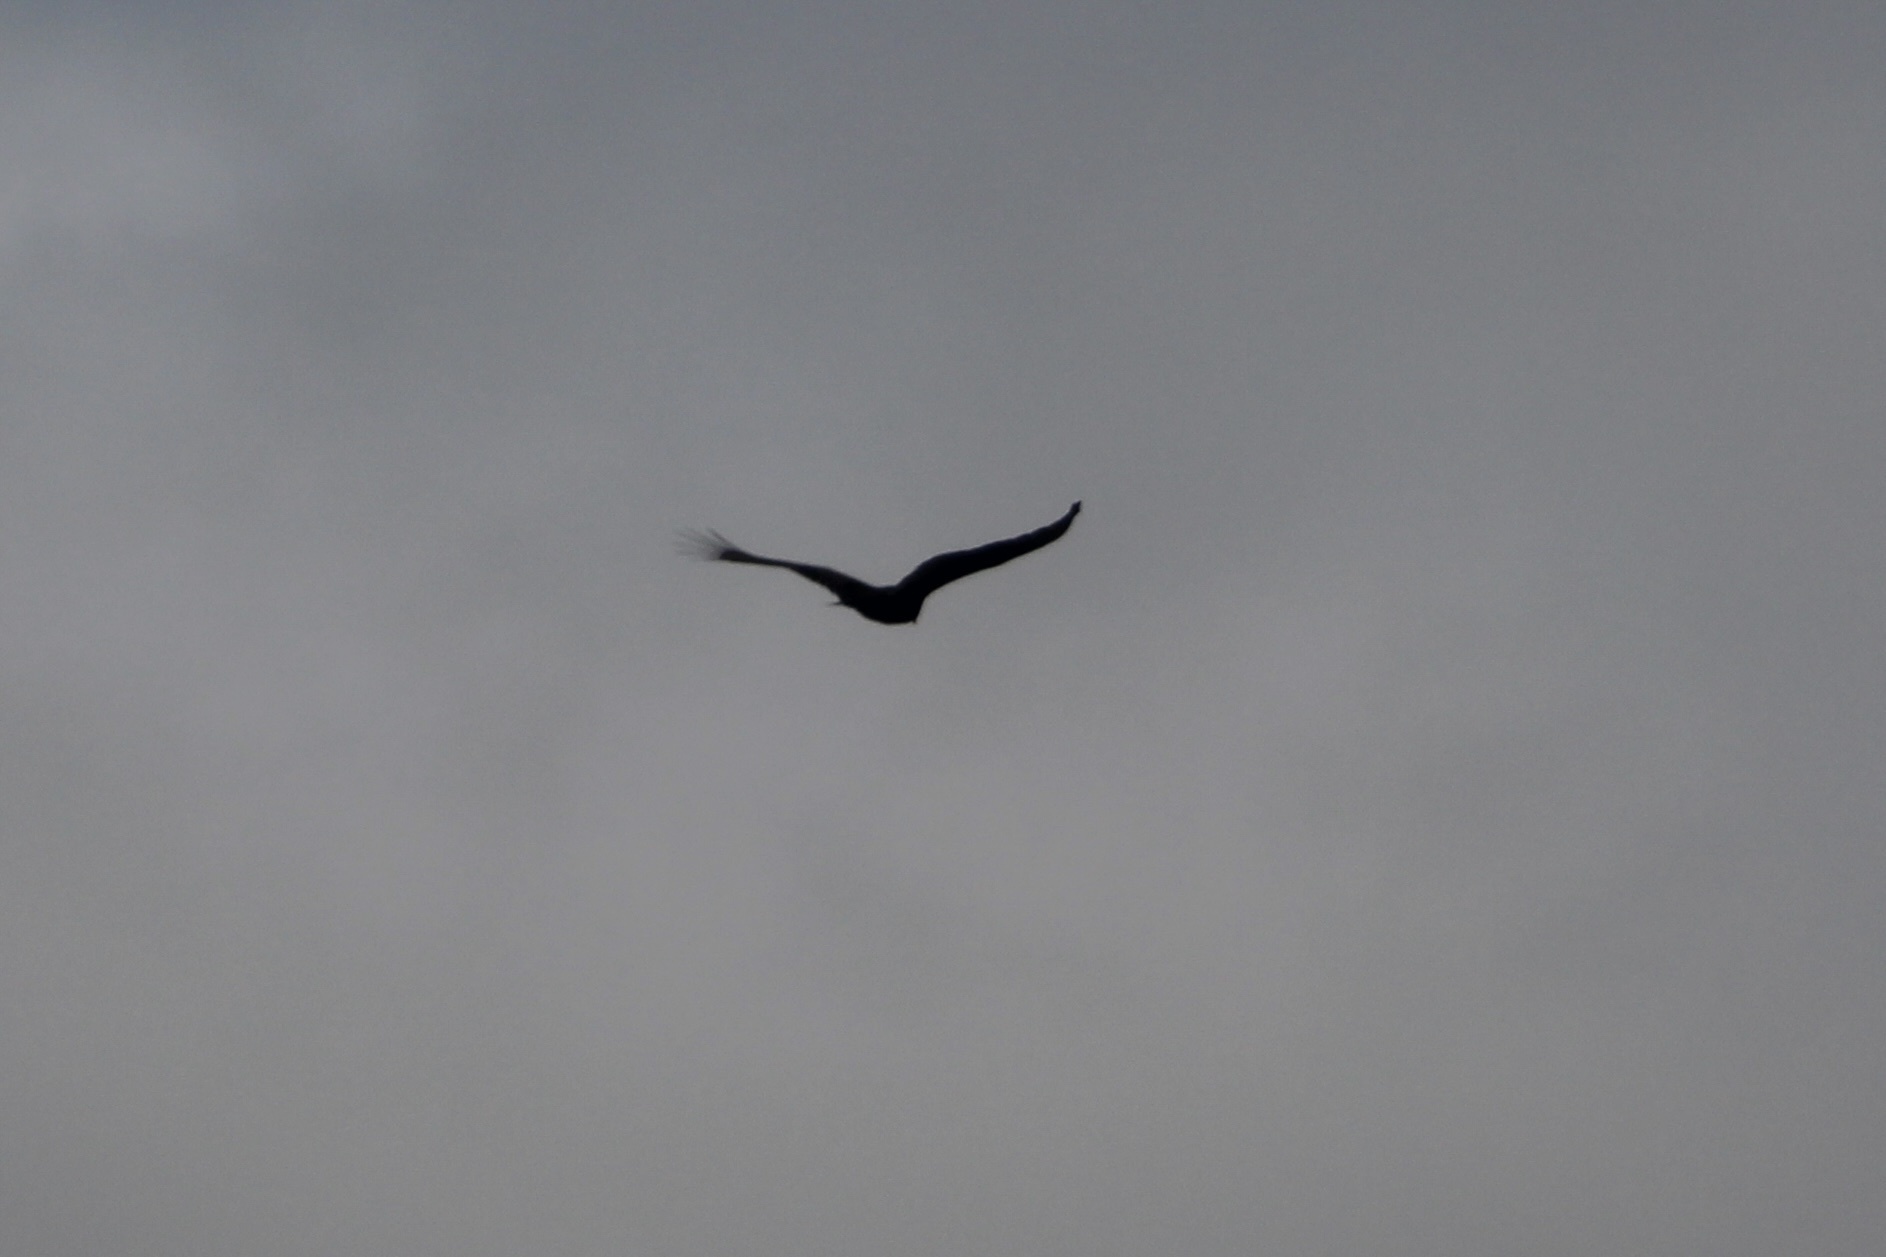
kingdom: Animalia
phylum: Chordata
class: Aves
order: Accipitriformes
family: Cathartidae
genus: Cathartes
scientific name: Cathartes aura
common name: Turkey vulture
